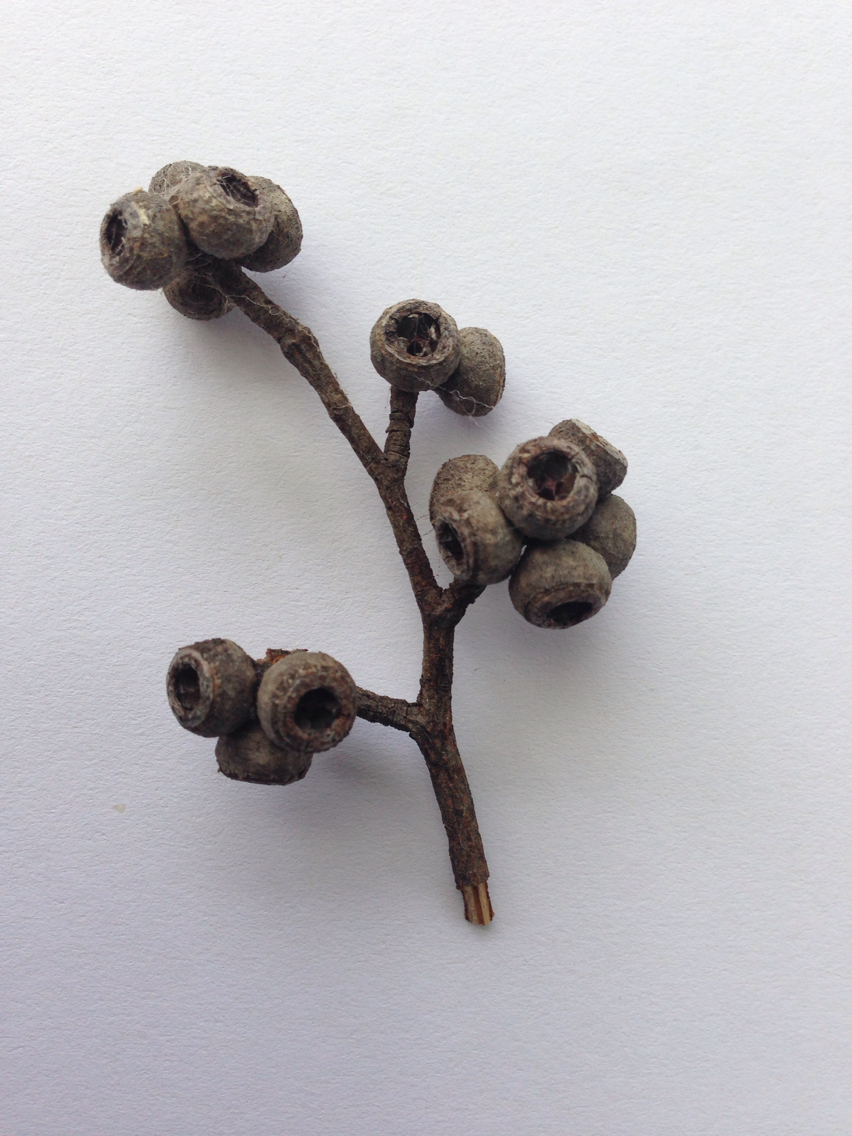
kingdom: Plantae
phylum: Tracheophyta
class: Magnoliopsida
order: Myrtales
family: Myrtaceae
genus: Eucalyptus
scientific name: Eucalyptus globoidea
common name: White-stringybark
